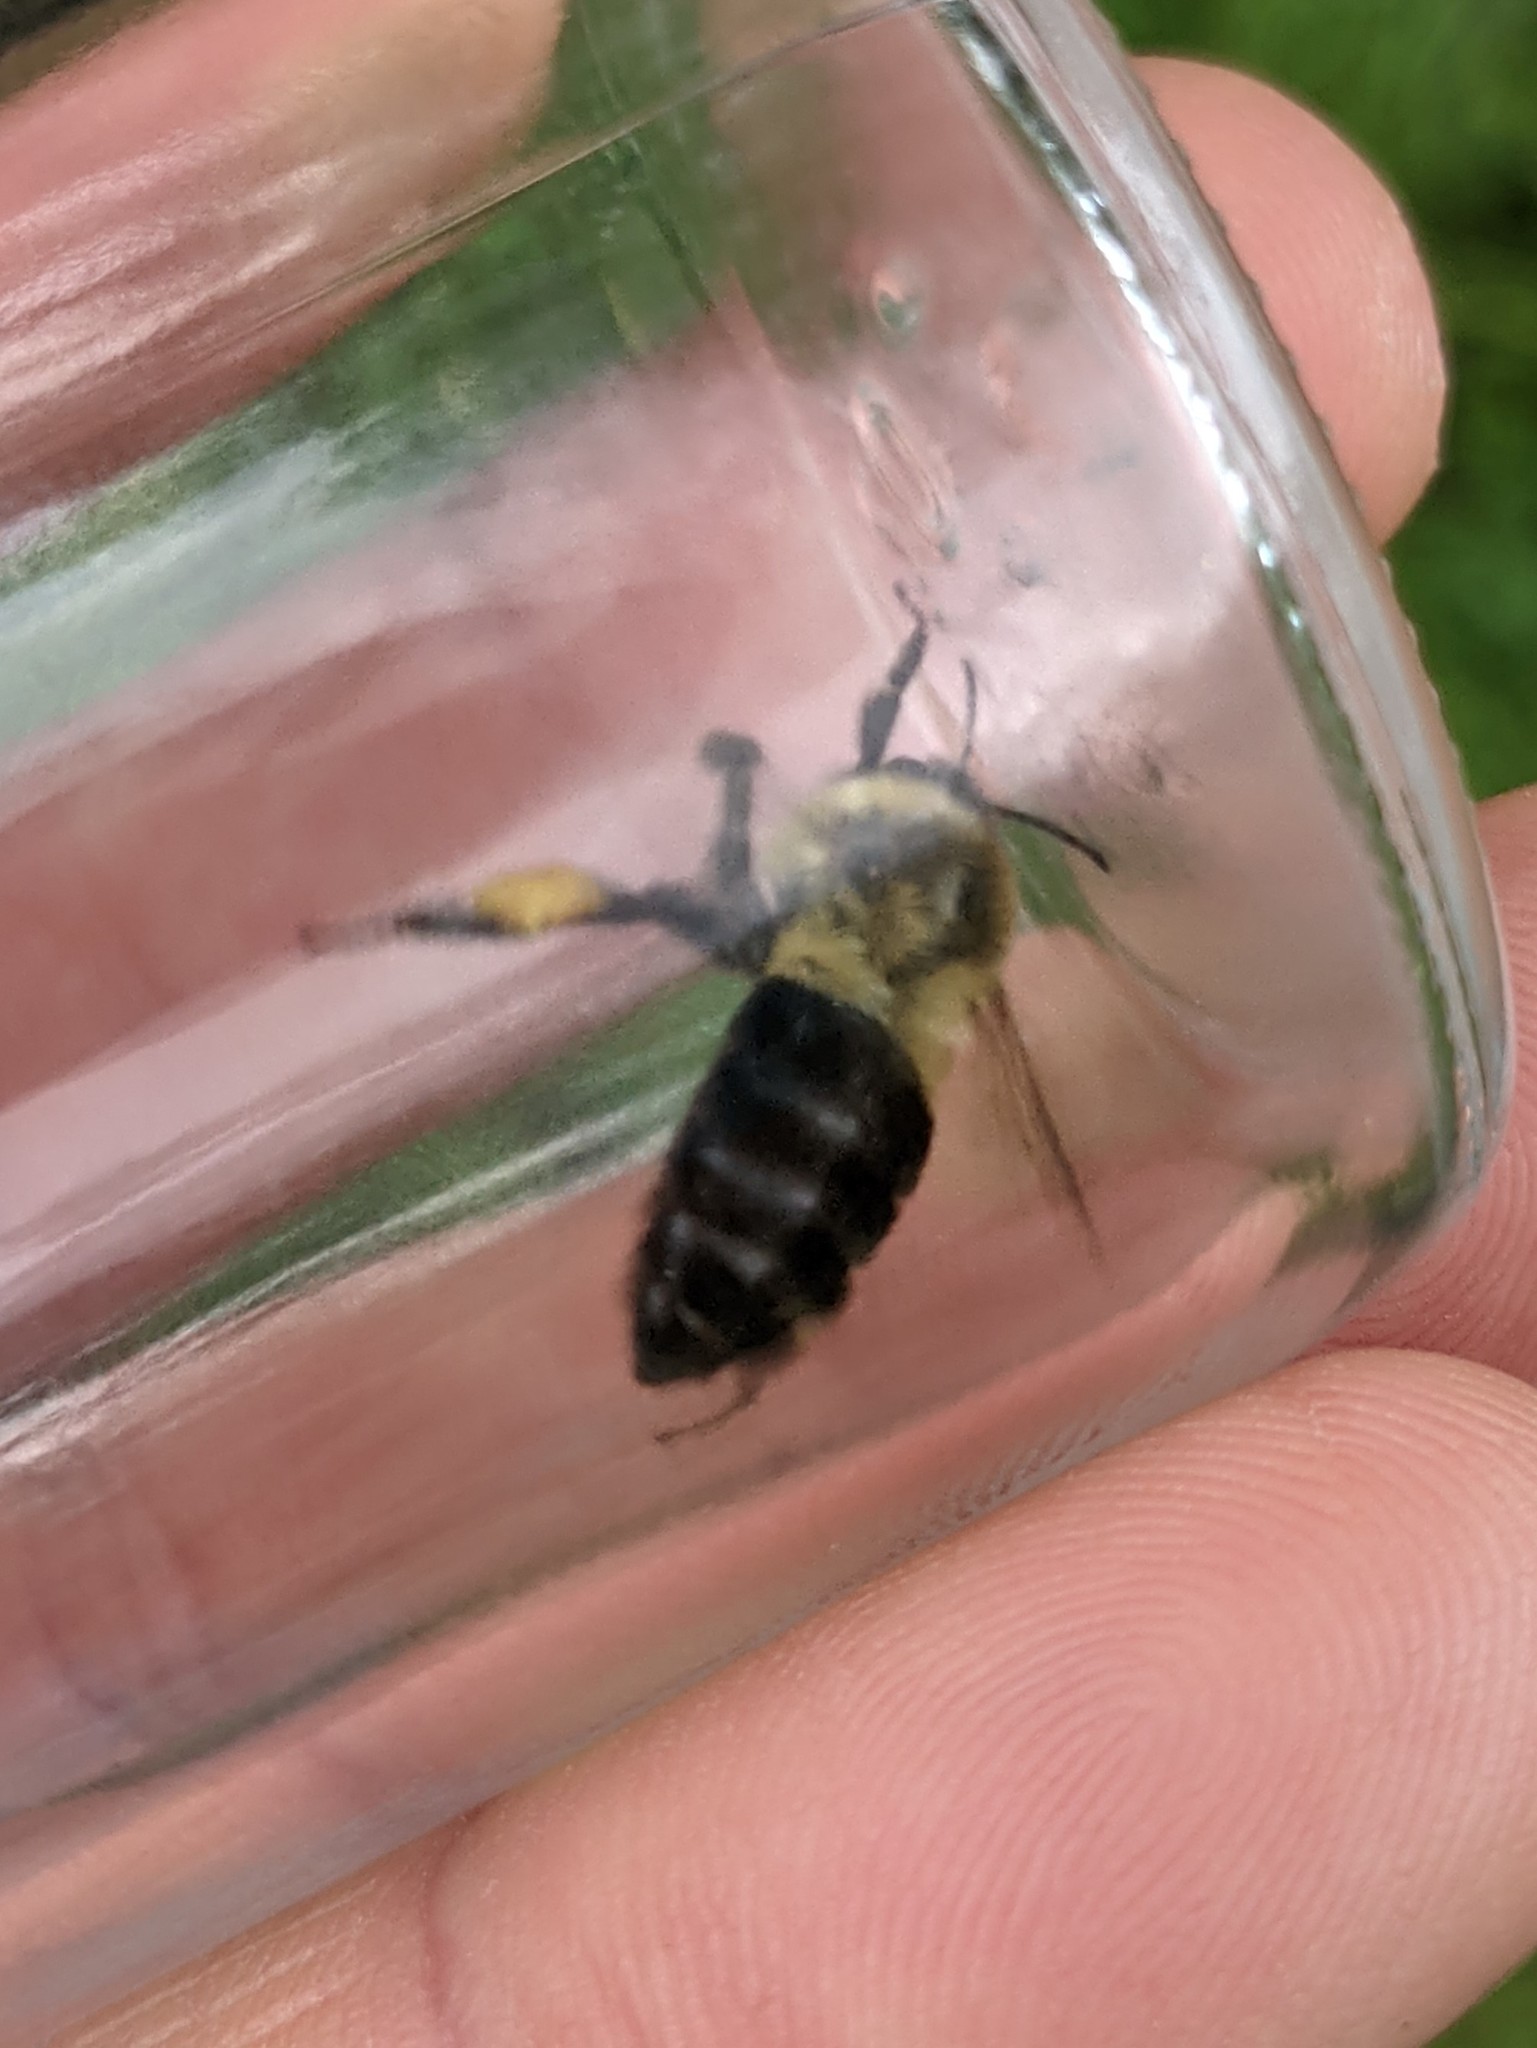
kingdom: Animalia
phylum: Arthropoda
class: Insecta
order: Hymenoptera
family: Apidae
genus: Bombus
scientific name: Bombus impatiens
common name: Common eastern bumble bee
